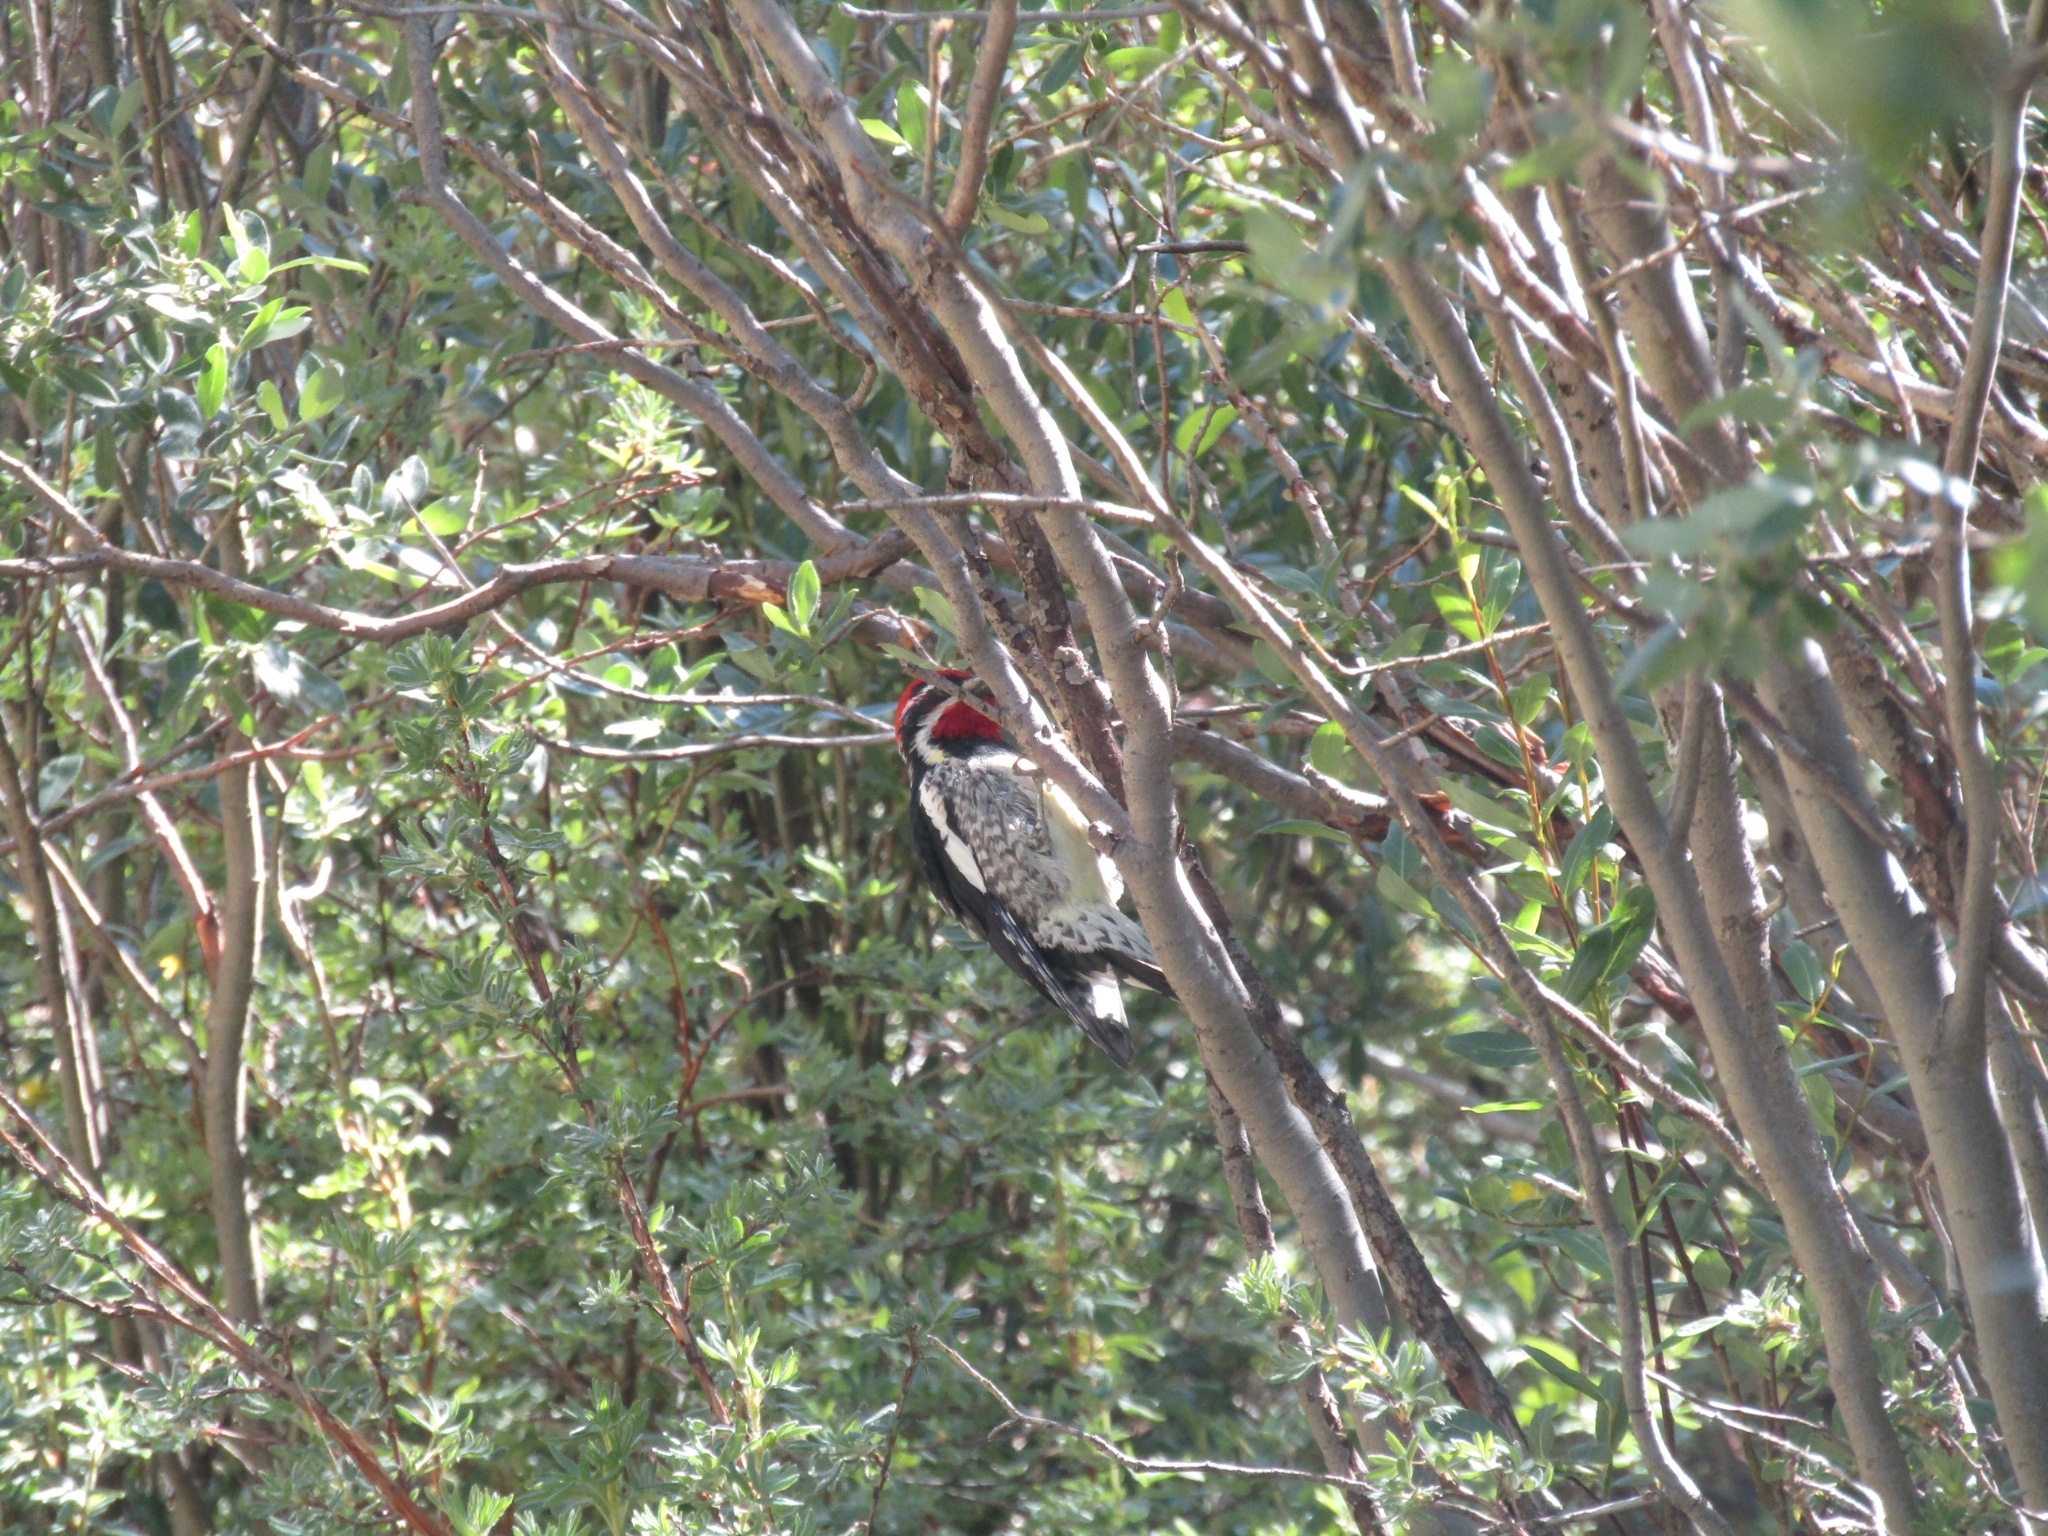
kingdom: Animalia
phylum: Chordata
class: Aves
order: Piciformes
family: Picidae
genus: Sphyrapicus
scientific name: Sphyrapicus nuchalis
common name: Red-naped sapsucker
